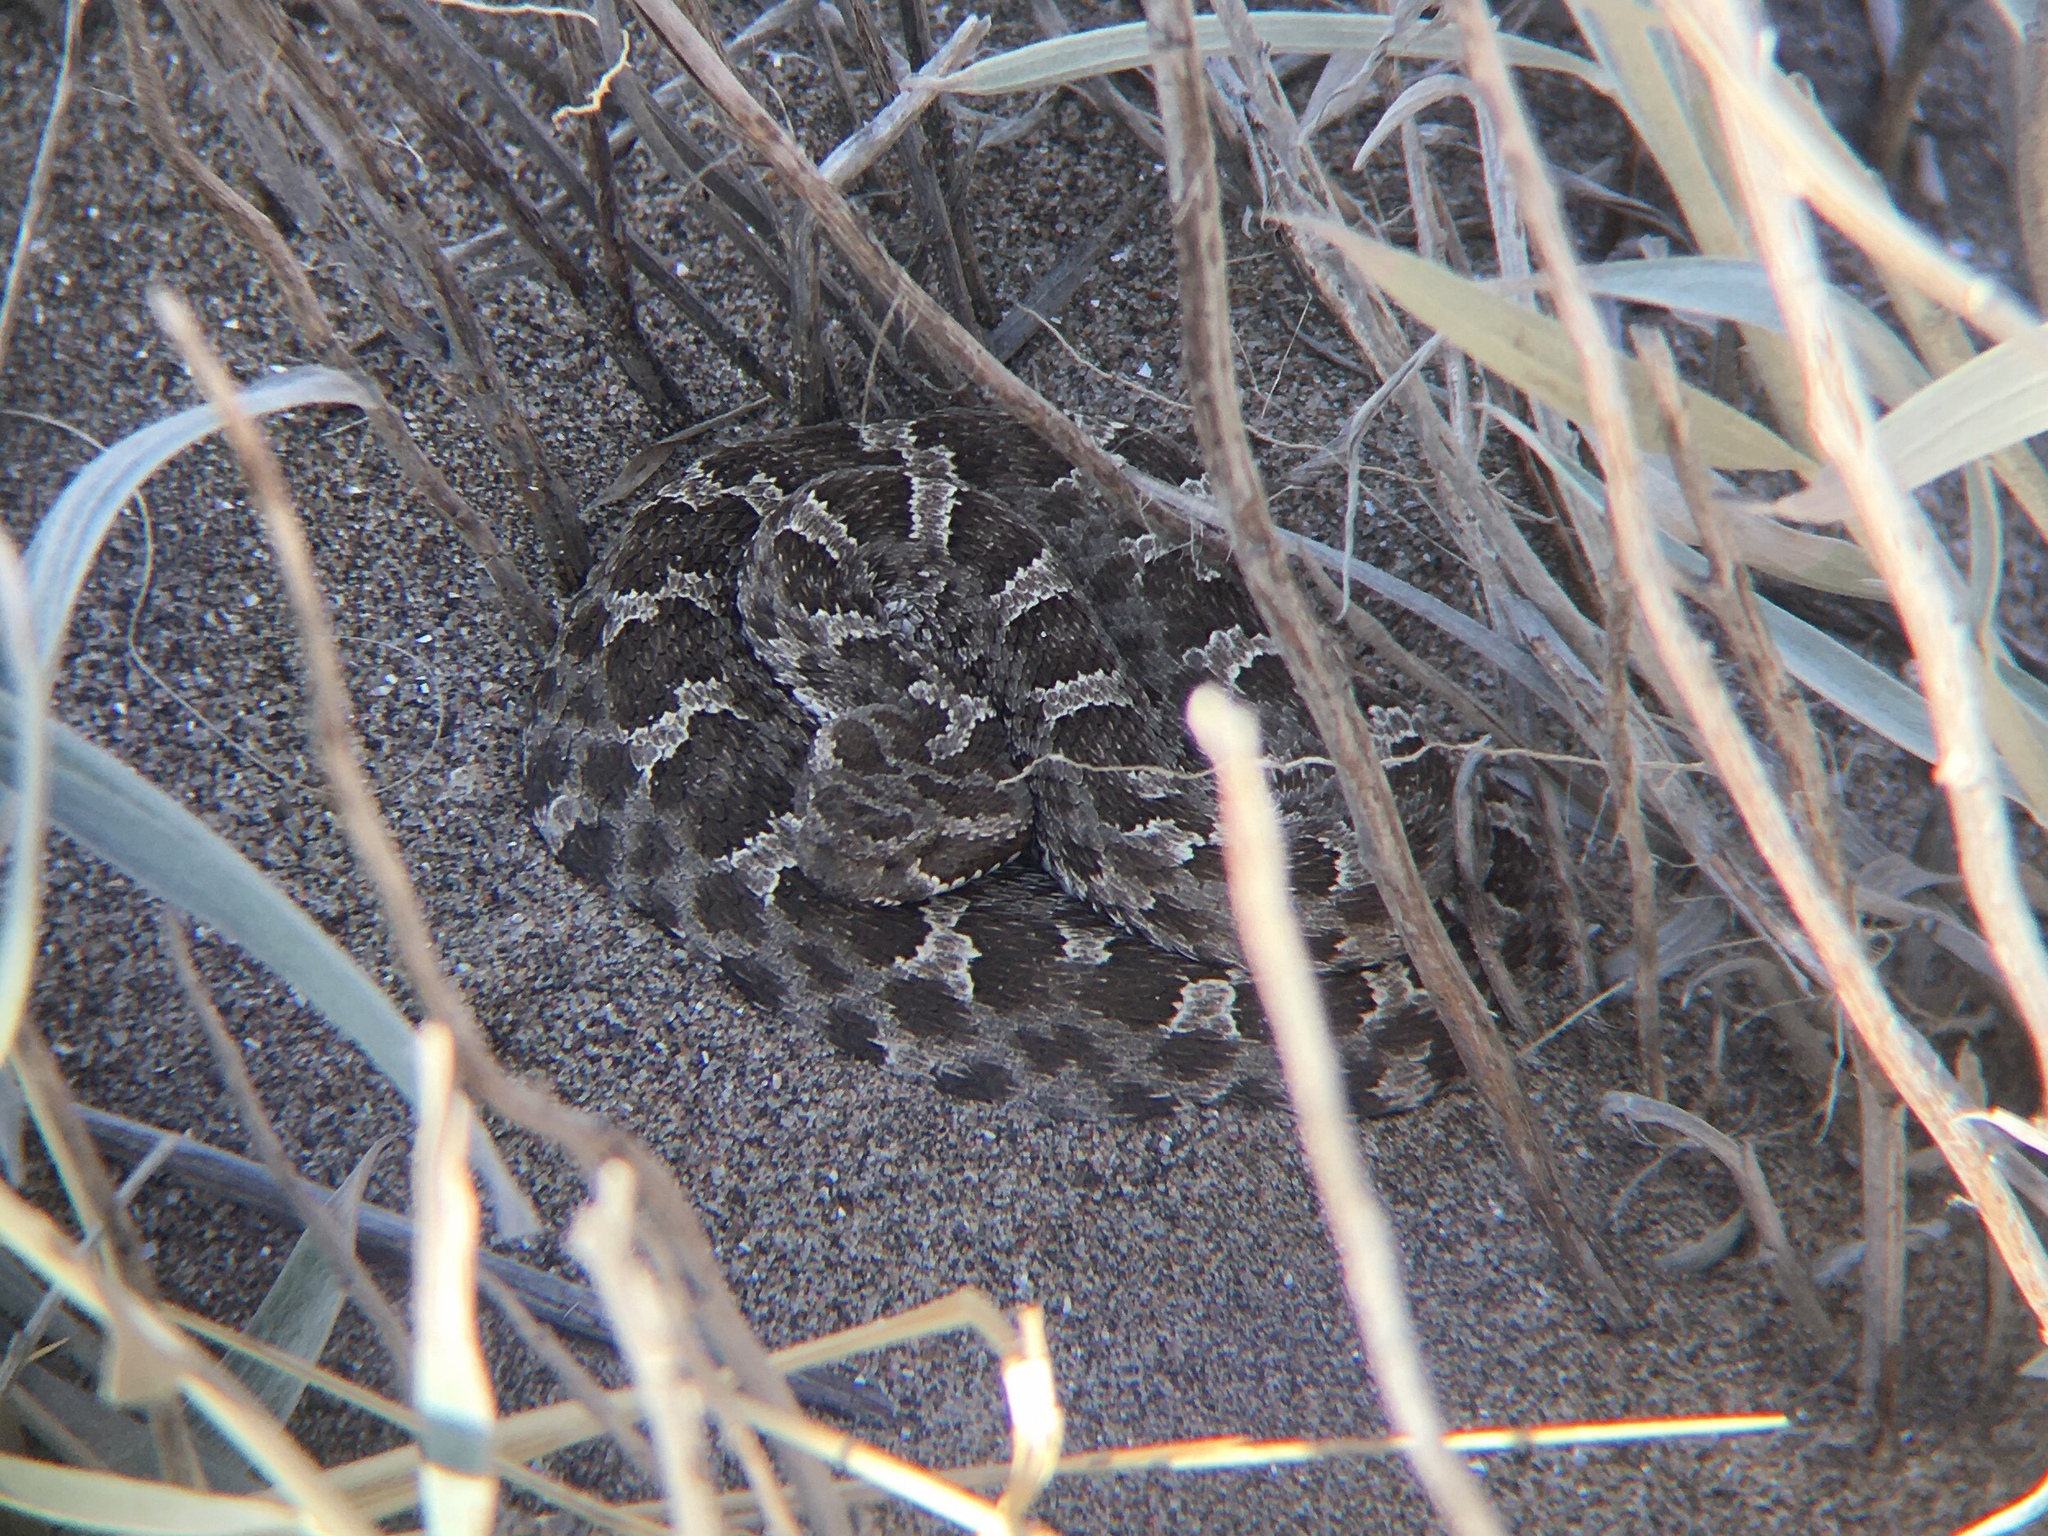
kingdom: Animalia
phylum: Chordata
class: Squamata
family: Viperidae
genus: Bothrops
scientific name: Bothrops ammodytoides
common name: Yararanata
